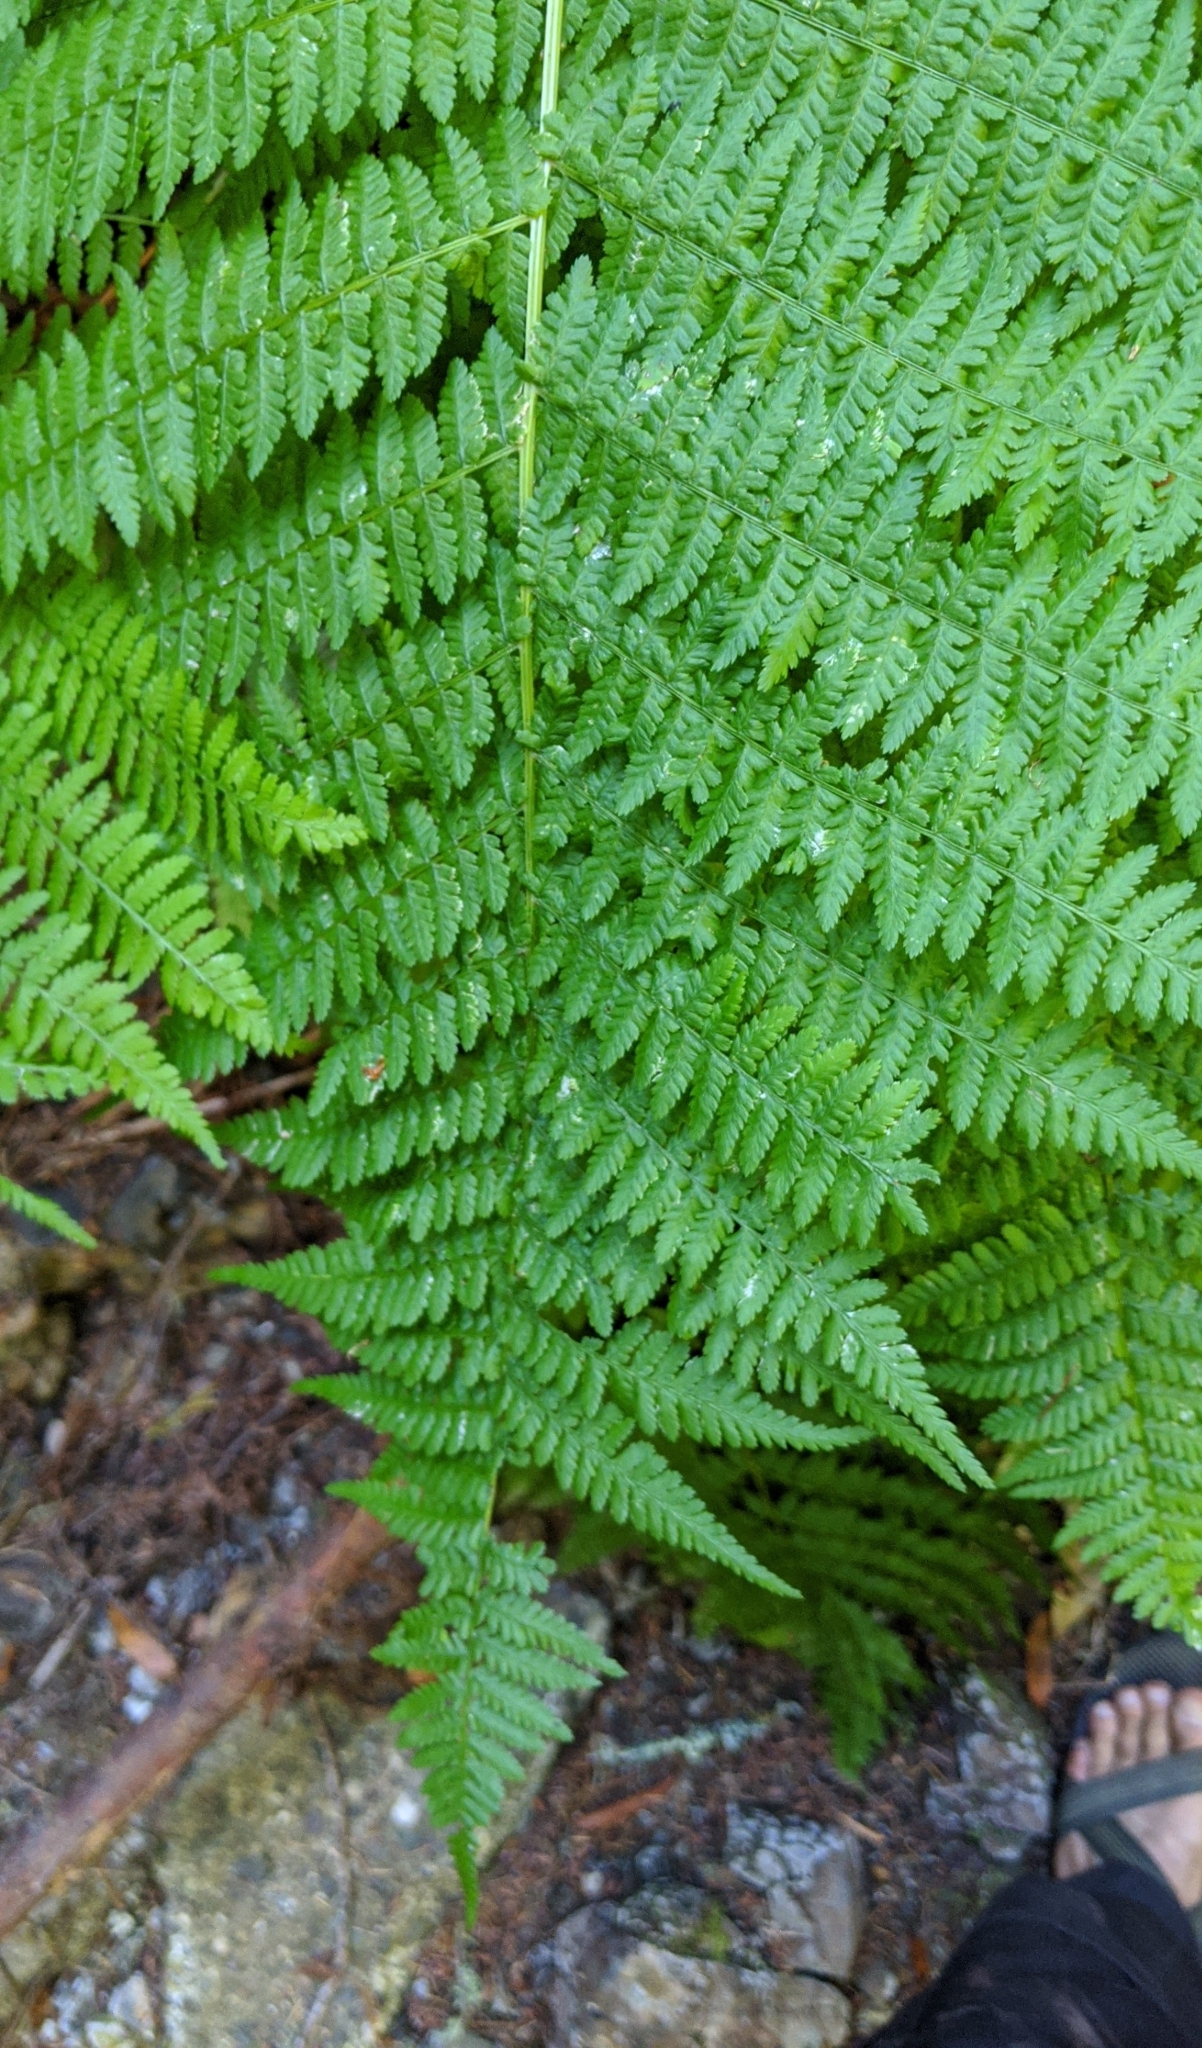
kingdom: Plantae
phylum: Tracheophyta
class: Polypodiopsida
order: Polypodiales
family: Athyriaceae
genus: Athyrium
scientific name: Athyrium cyclosorum
